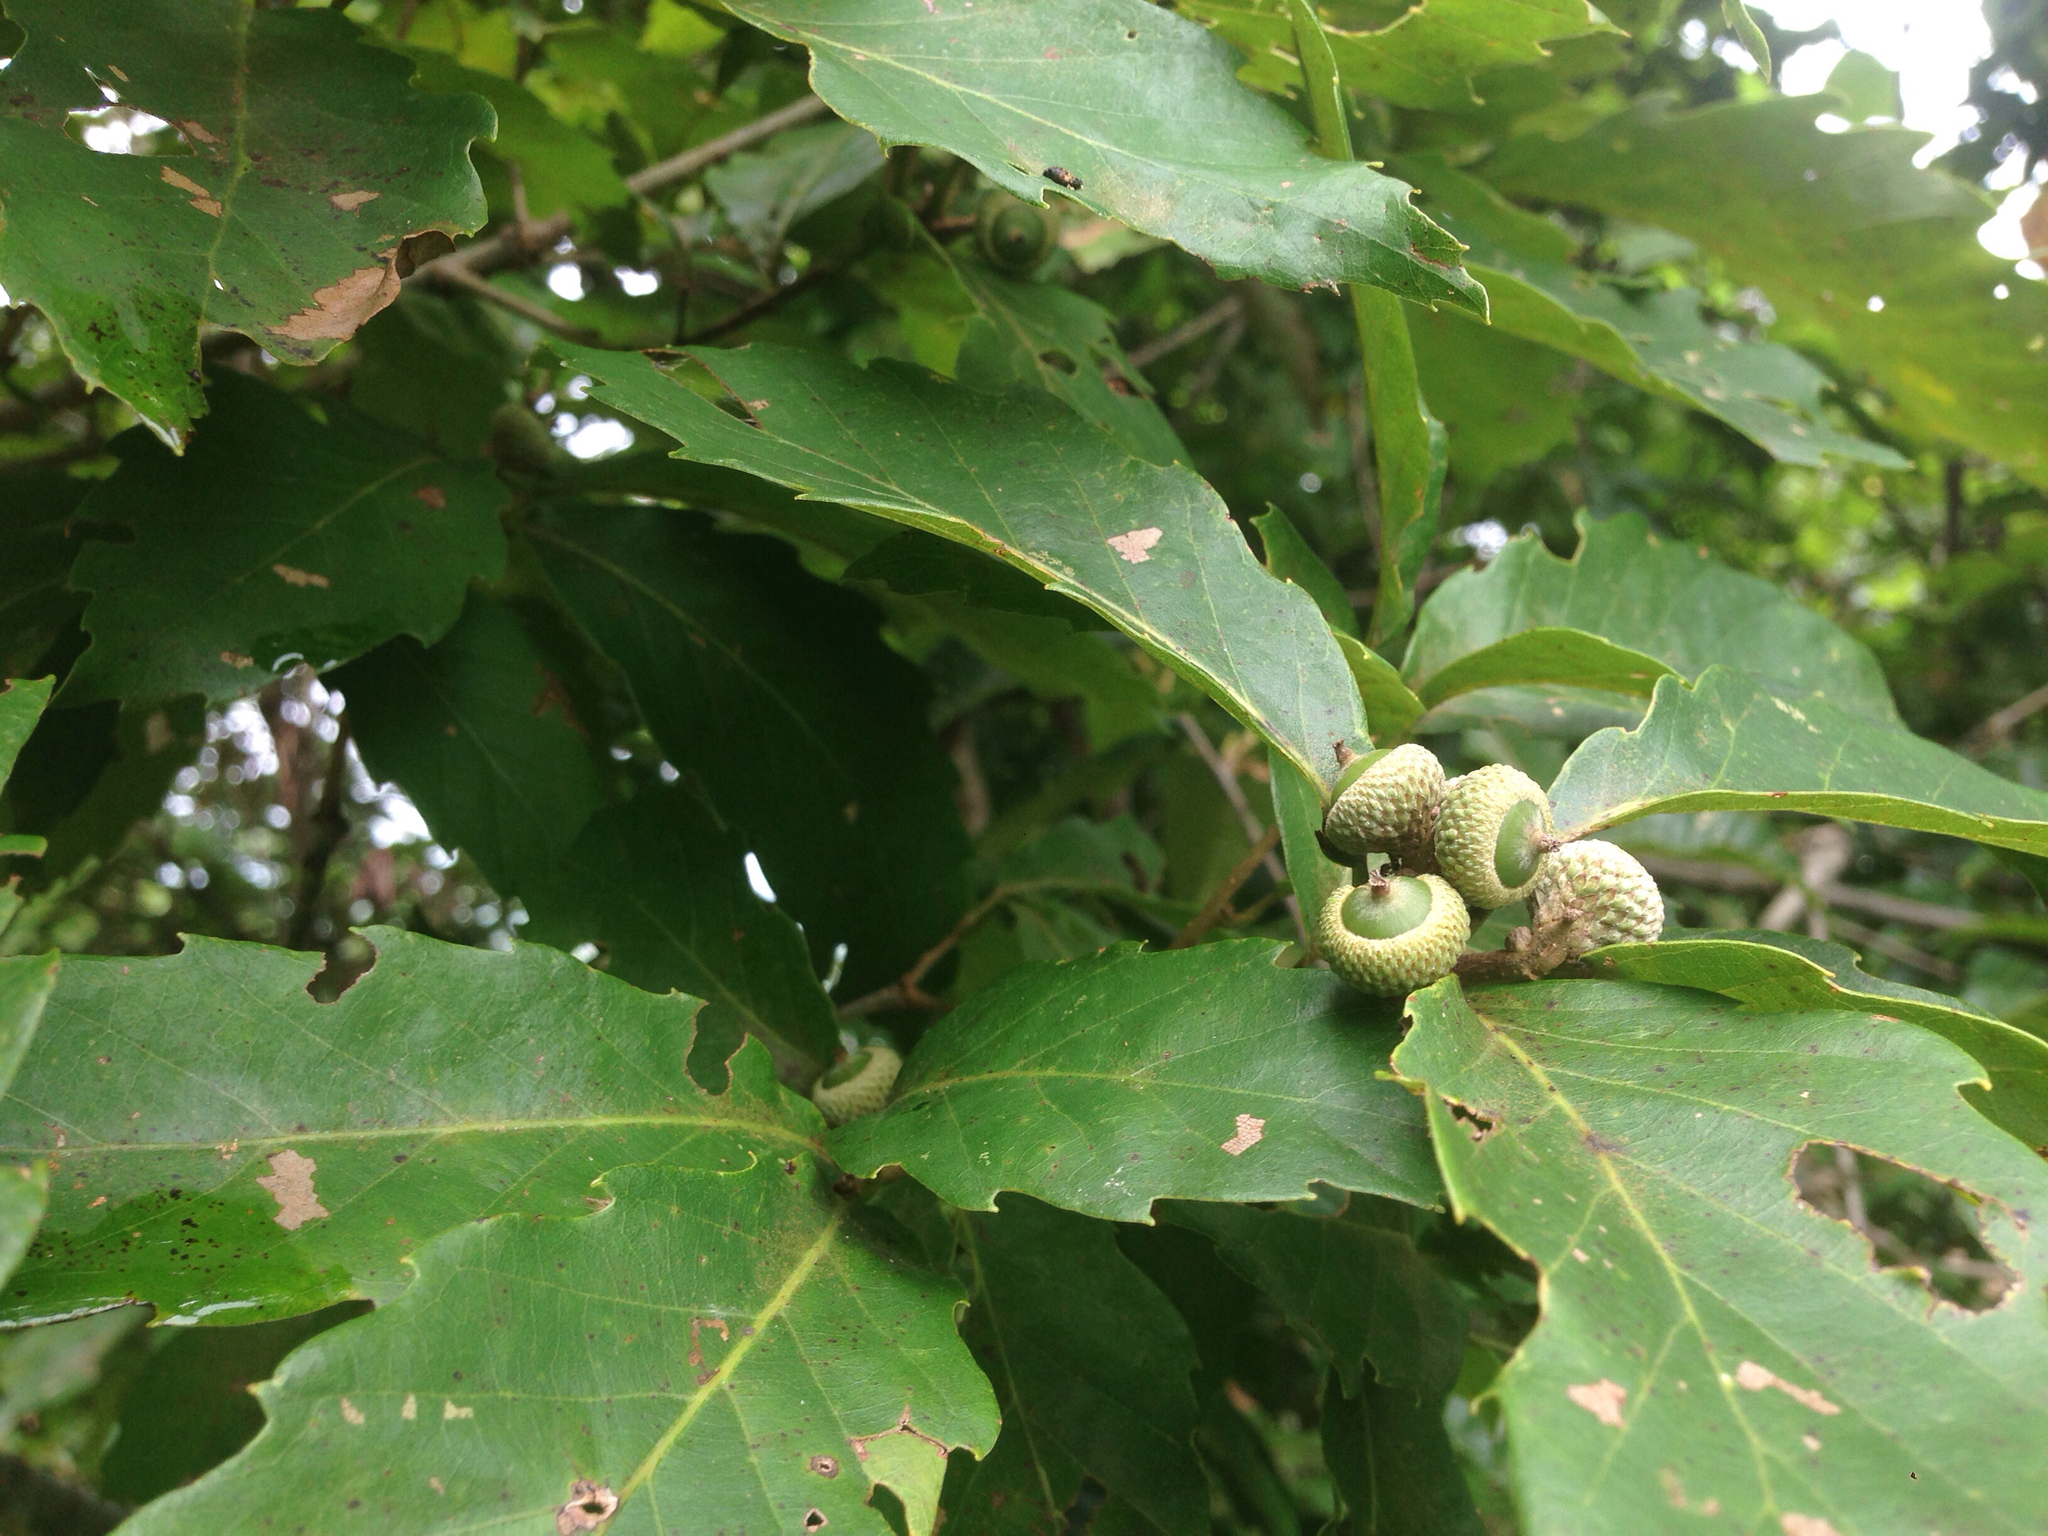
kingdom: Plantae
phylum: Tracheophyta
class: Magnoliopsida
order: Fagales
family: Fagaceae
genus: Quercus
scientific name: Quercus serrata
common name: Bao li
